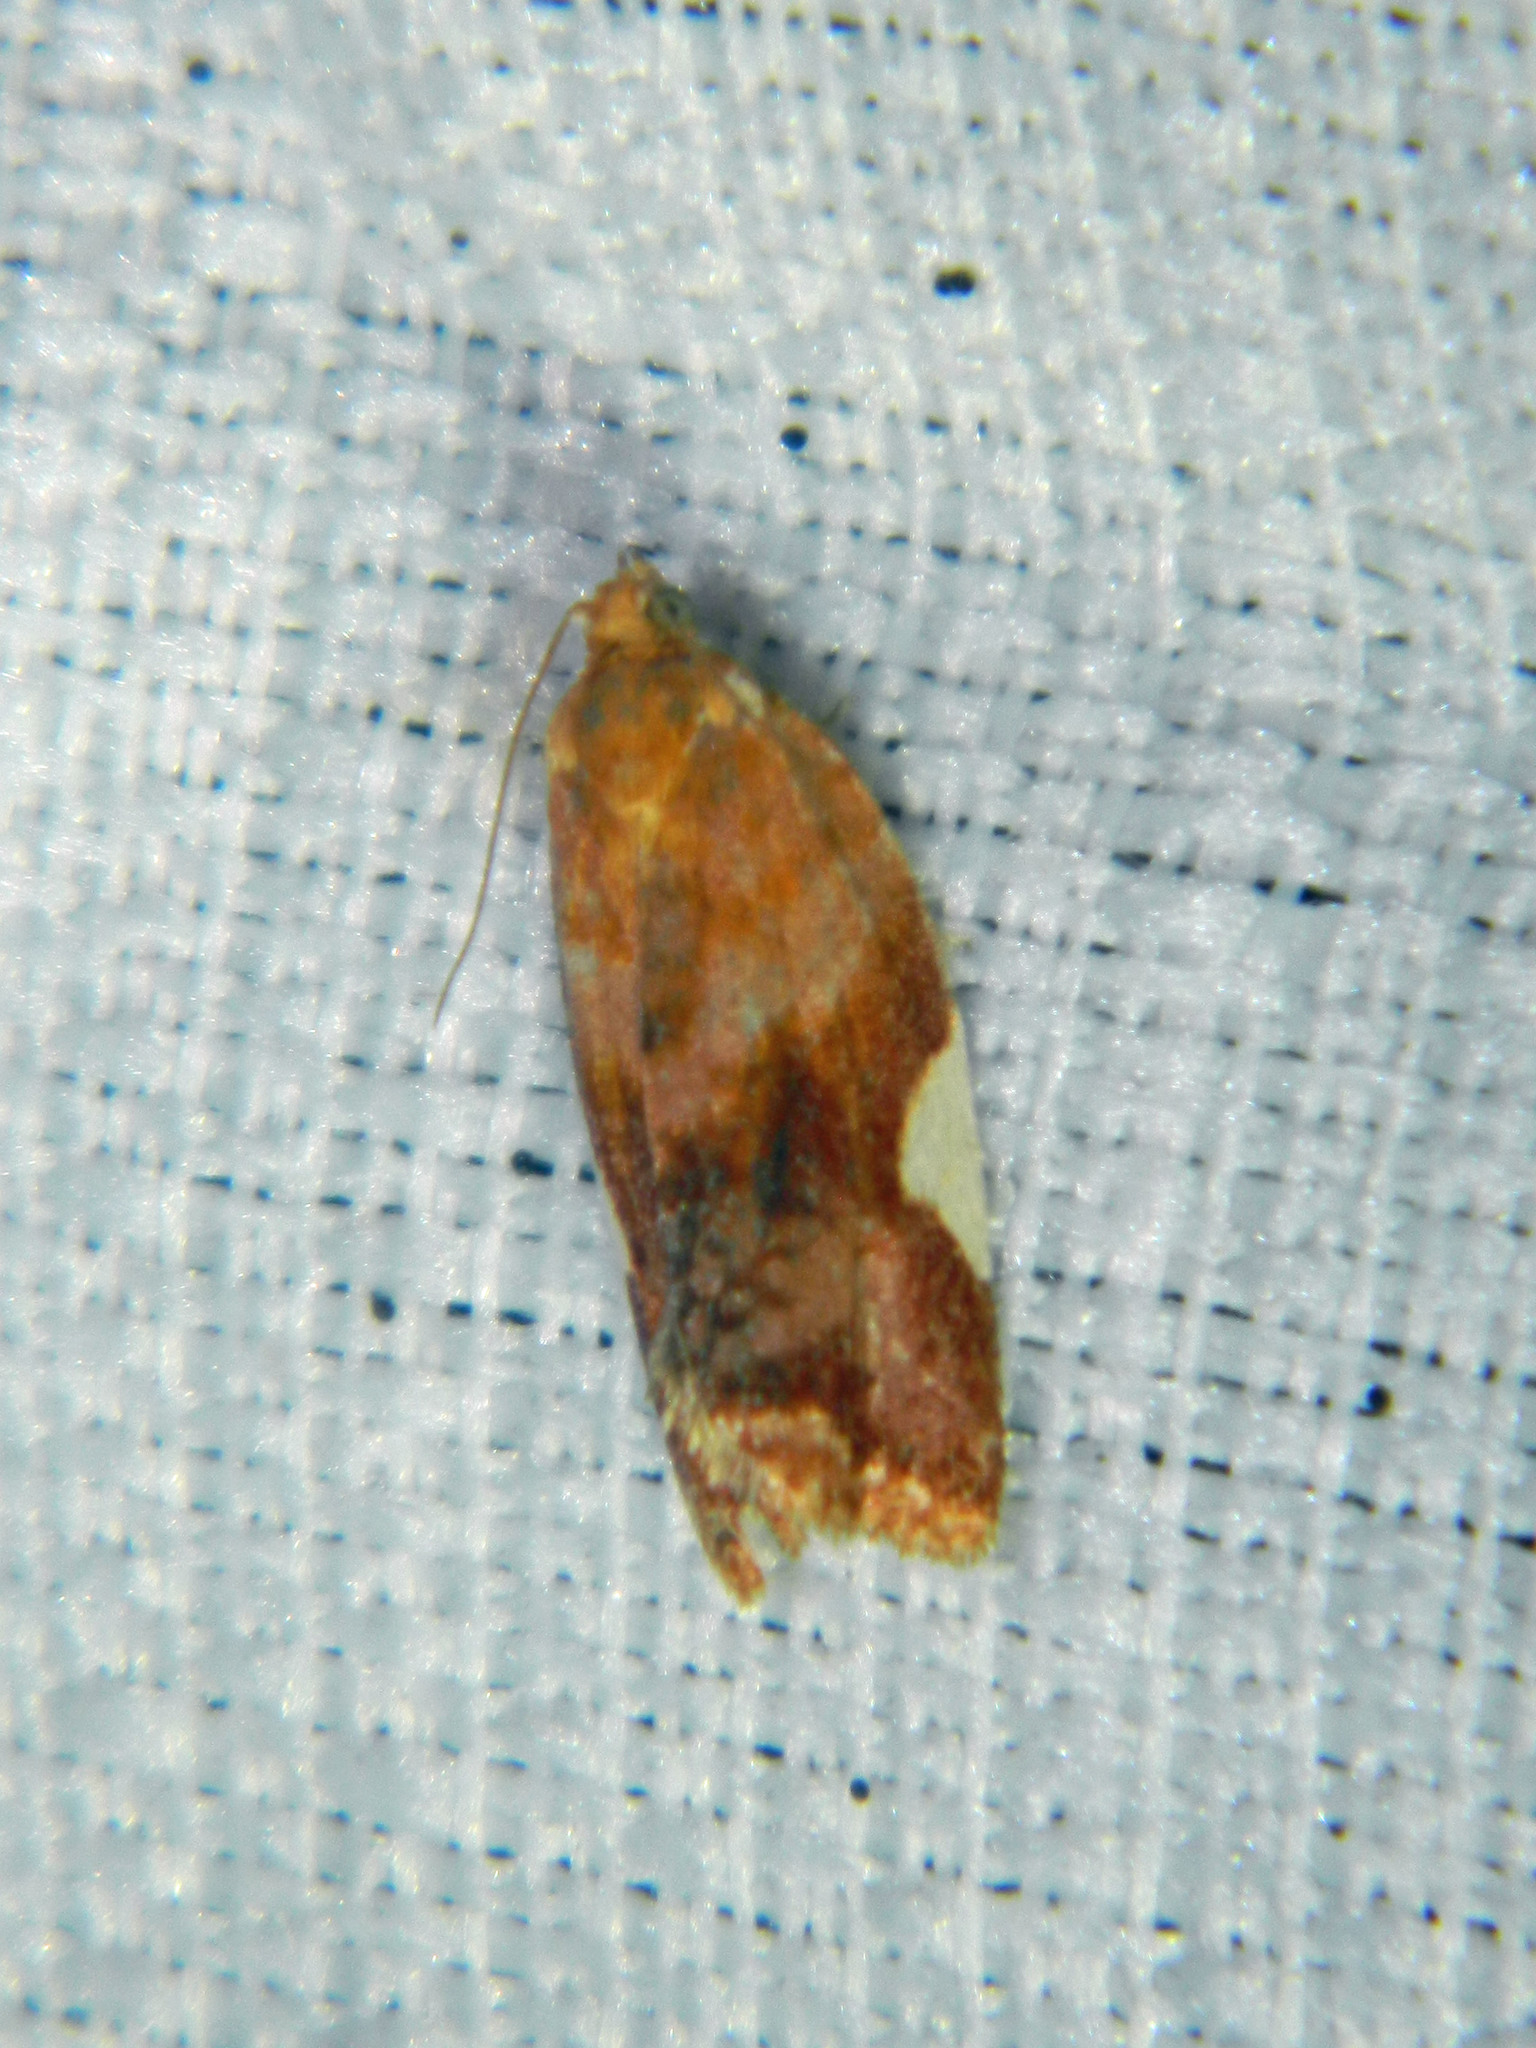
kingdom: Animalia
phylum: Arthropoda
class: Insecta
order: Lepidoptera
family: Tortricidae
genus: Clepsis
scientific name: Clepsis persicana
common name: White triangle tortrix
